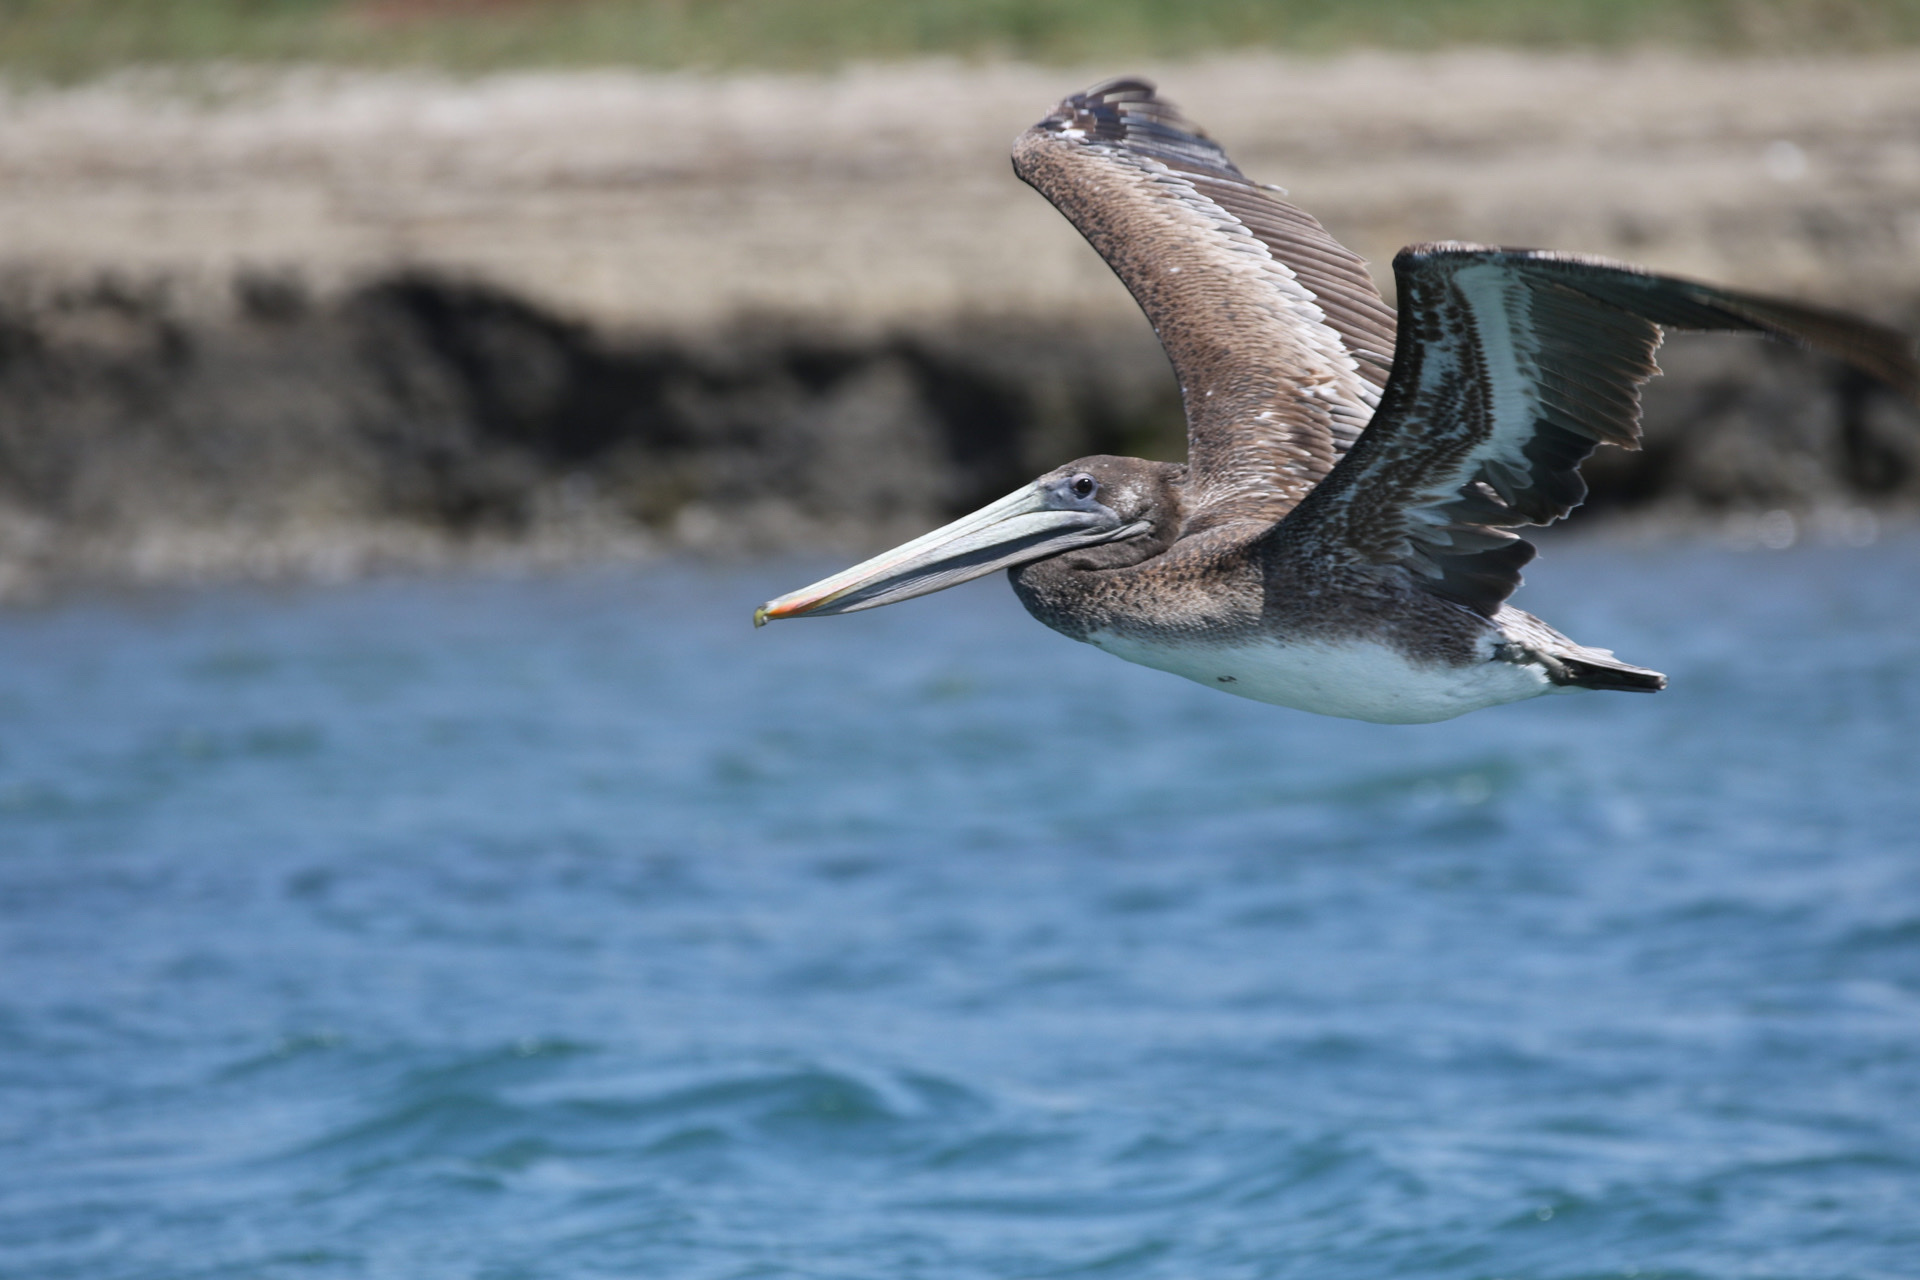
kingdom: Animalia
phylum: Chordata
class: Aves
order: Pelecaniformes
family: Pelecanidae
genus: Pelecanus
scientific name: Pelecanus occidentalis
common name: Brown pelican
